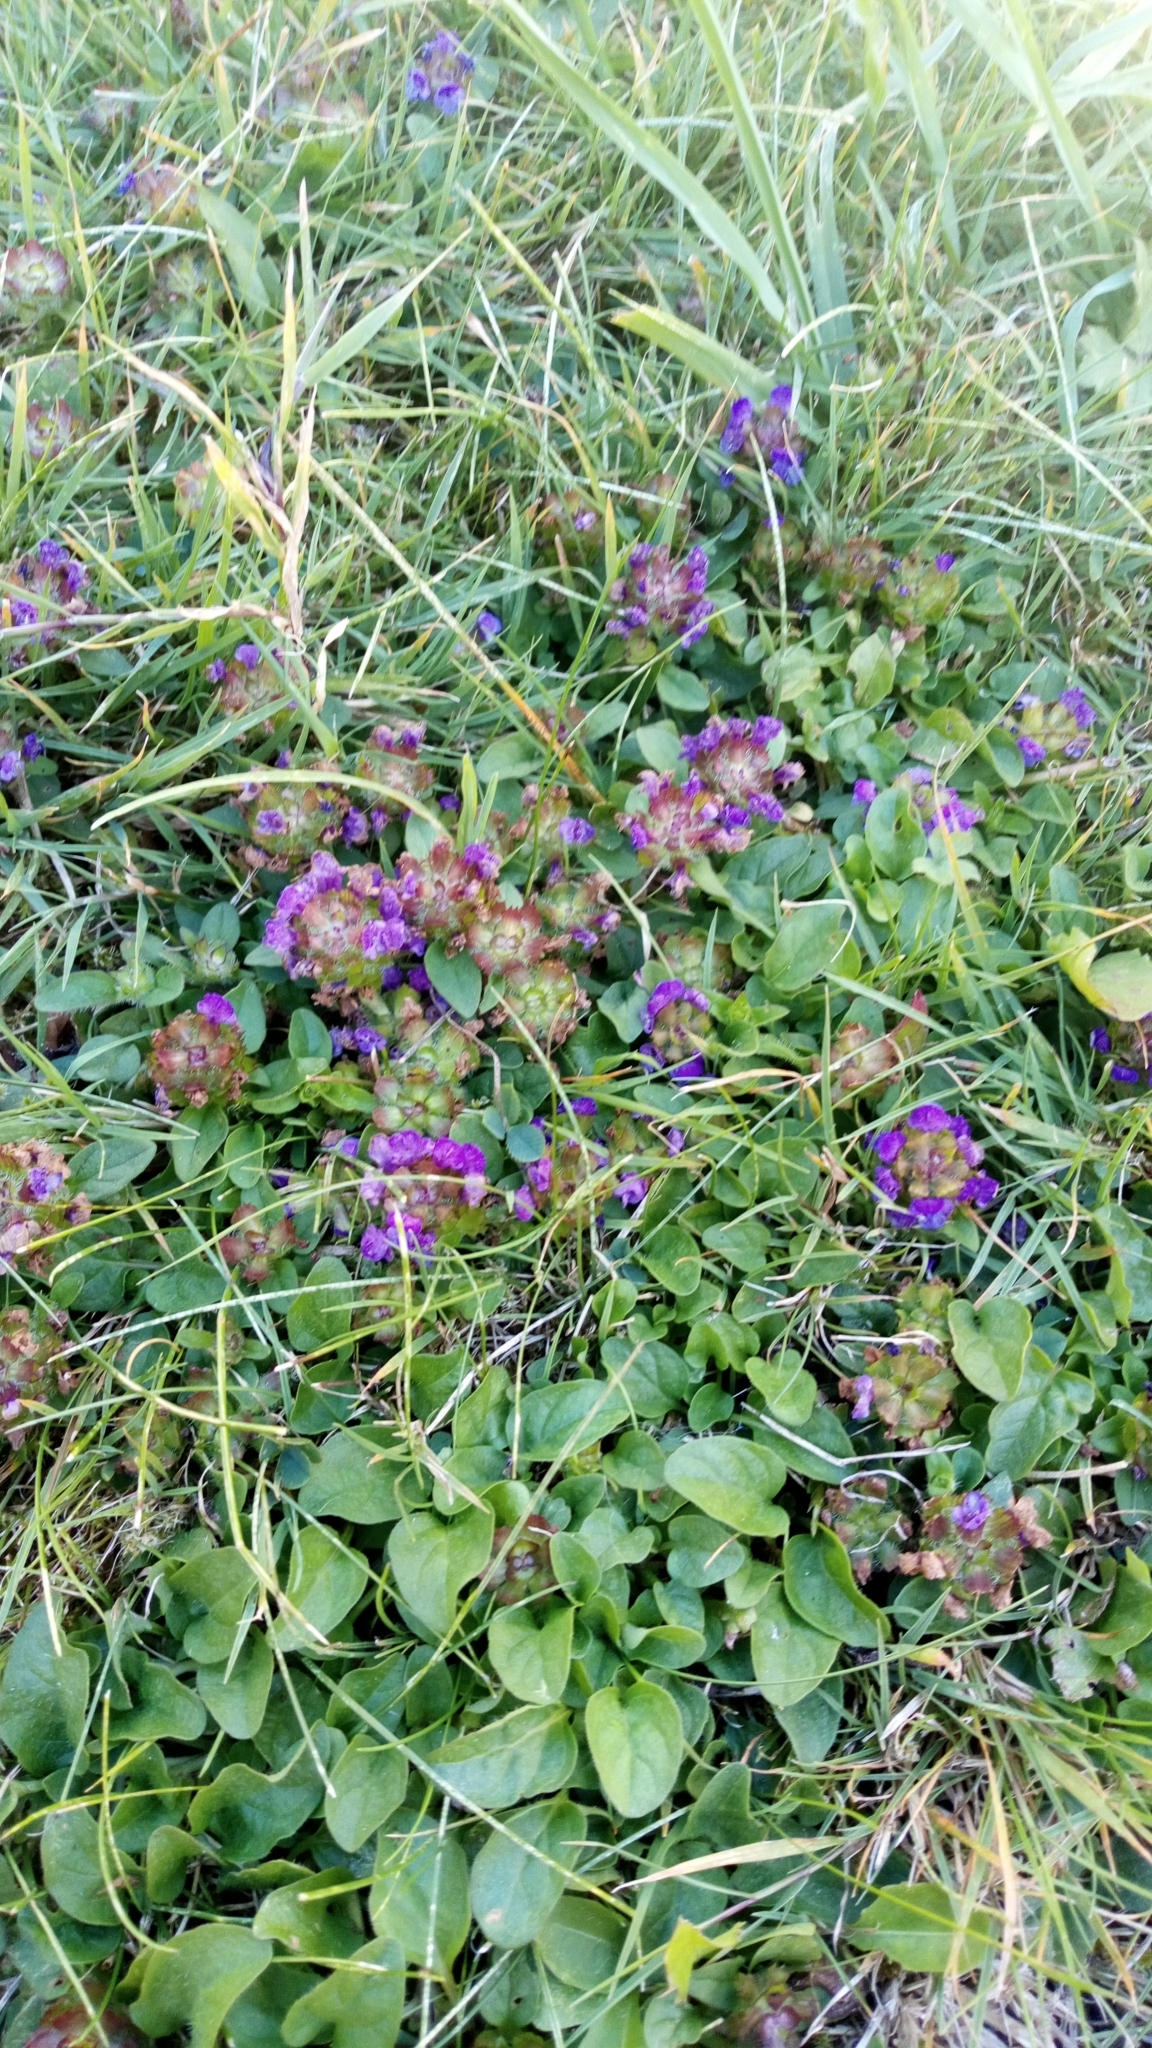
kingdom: Plantae
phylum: Tracheophyta
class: Magnoliopsida
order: Lamiales
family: Lamiaceae
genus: Prunella
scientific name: Prunella vulgaris
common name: Heal-all
